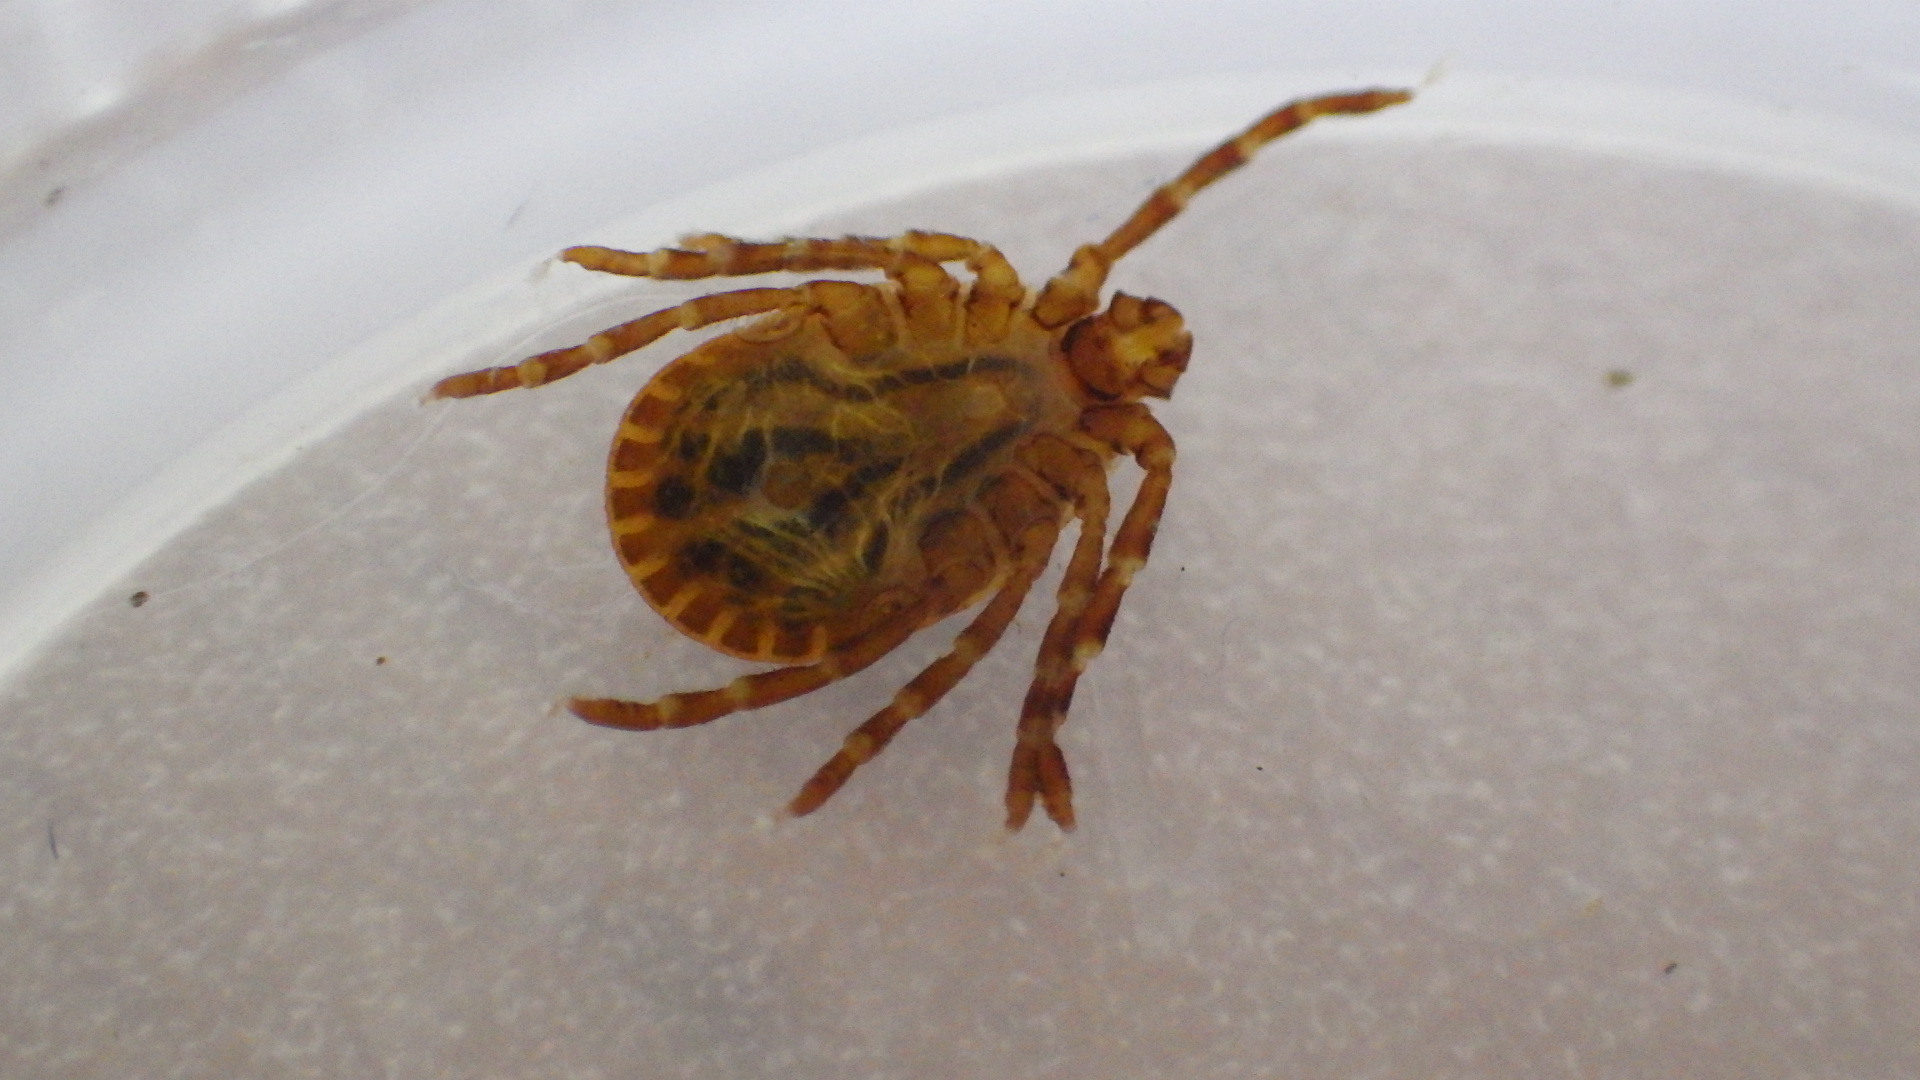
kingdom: Animalia
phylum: Arthropoda
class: Arachnida
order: Ixodida
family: Ixodidae
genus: Haemaphysalis
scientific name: Haemaphysalis longicornis
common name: Bush tick
